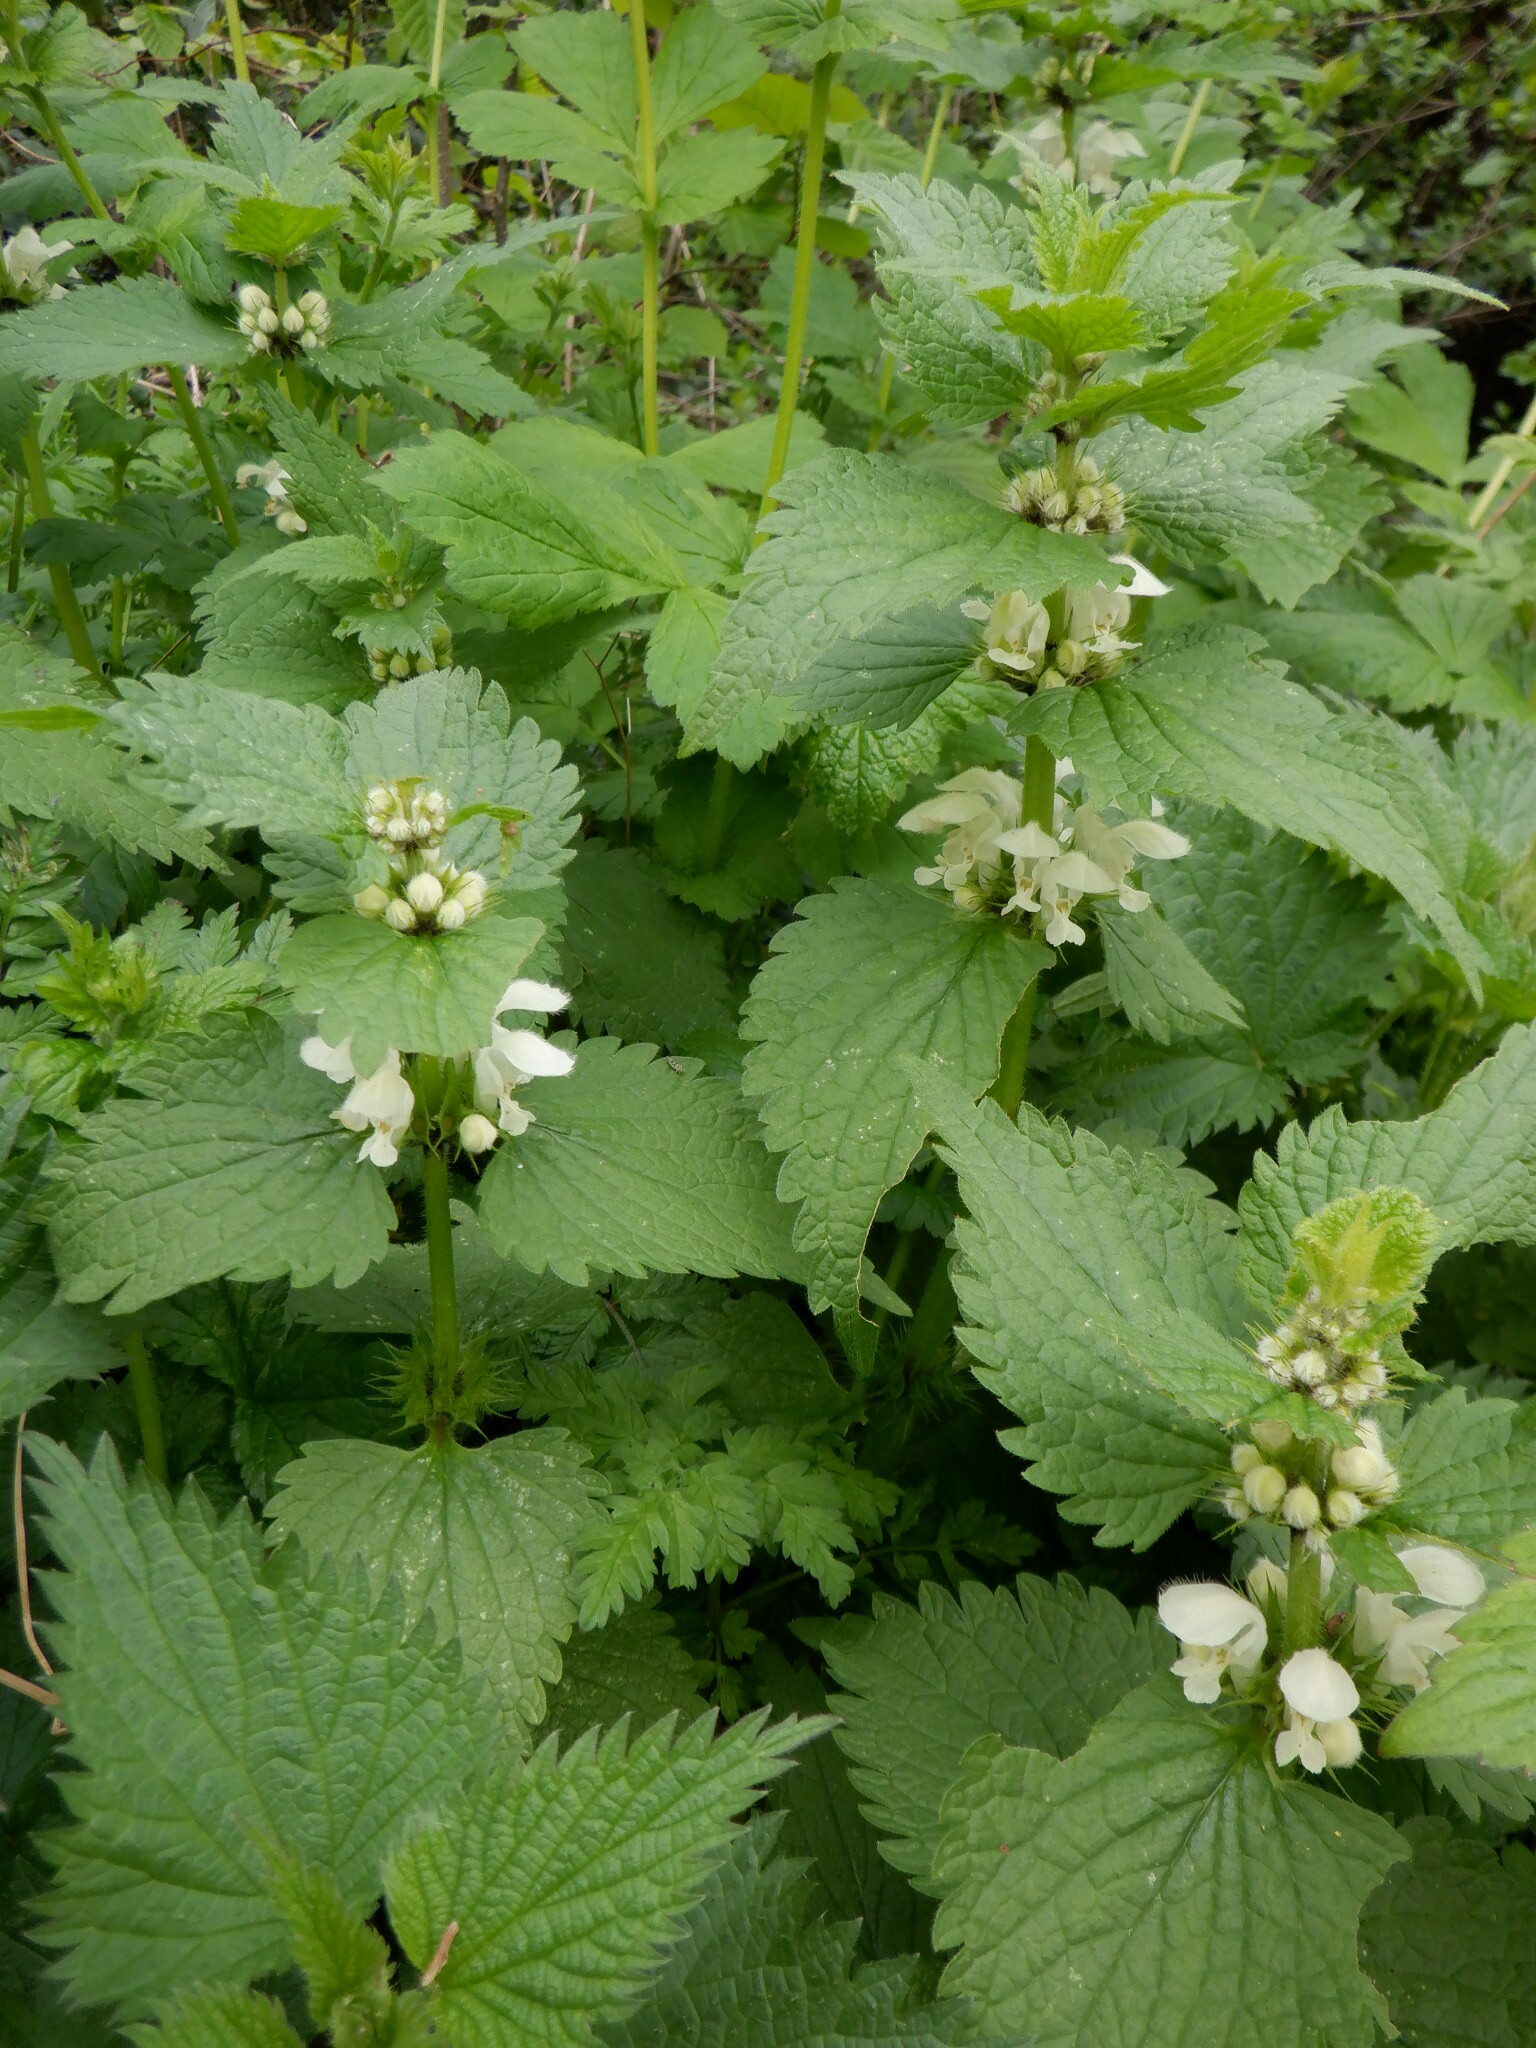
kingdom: Plantae
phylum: Tracheophyta
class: Magnoliopsida
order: Lamiales
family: Lamiaceae
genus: Lamium
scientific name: Lamium album
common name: White dead-nettle
